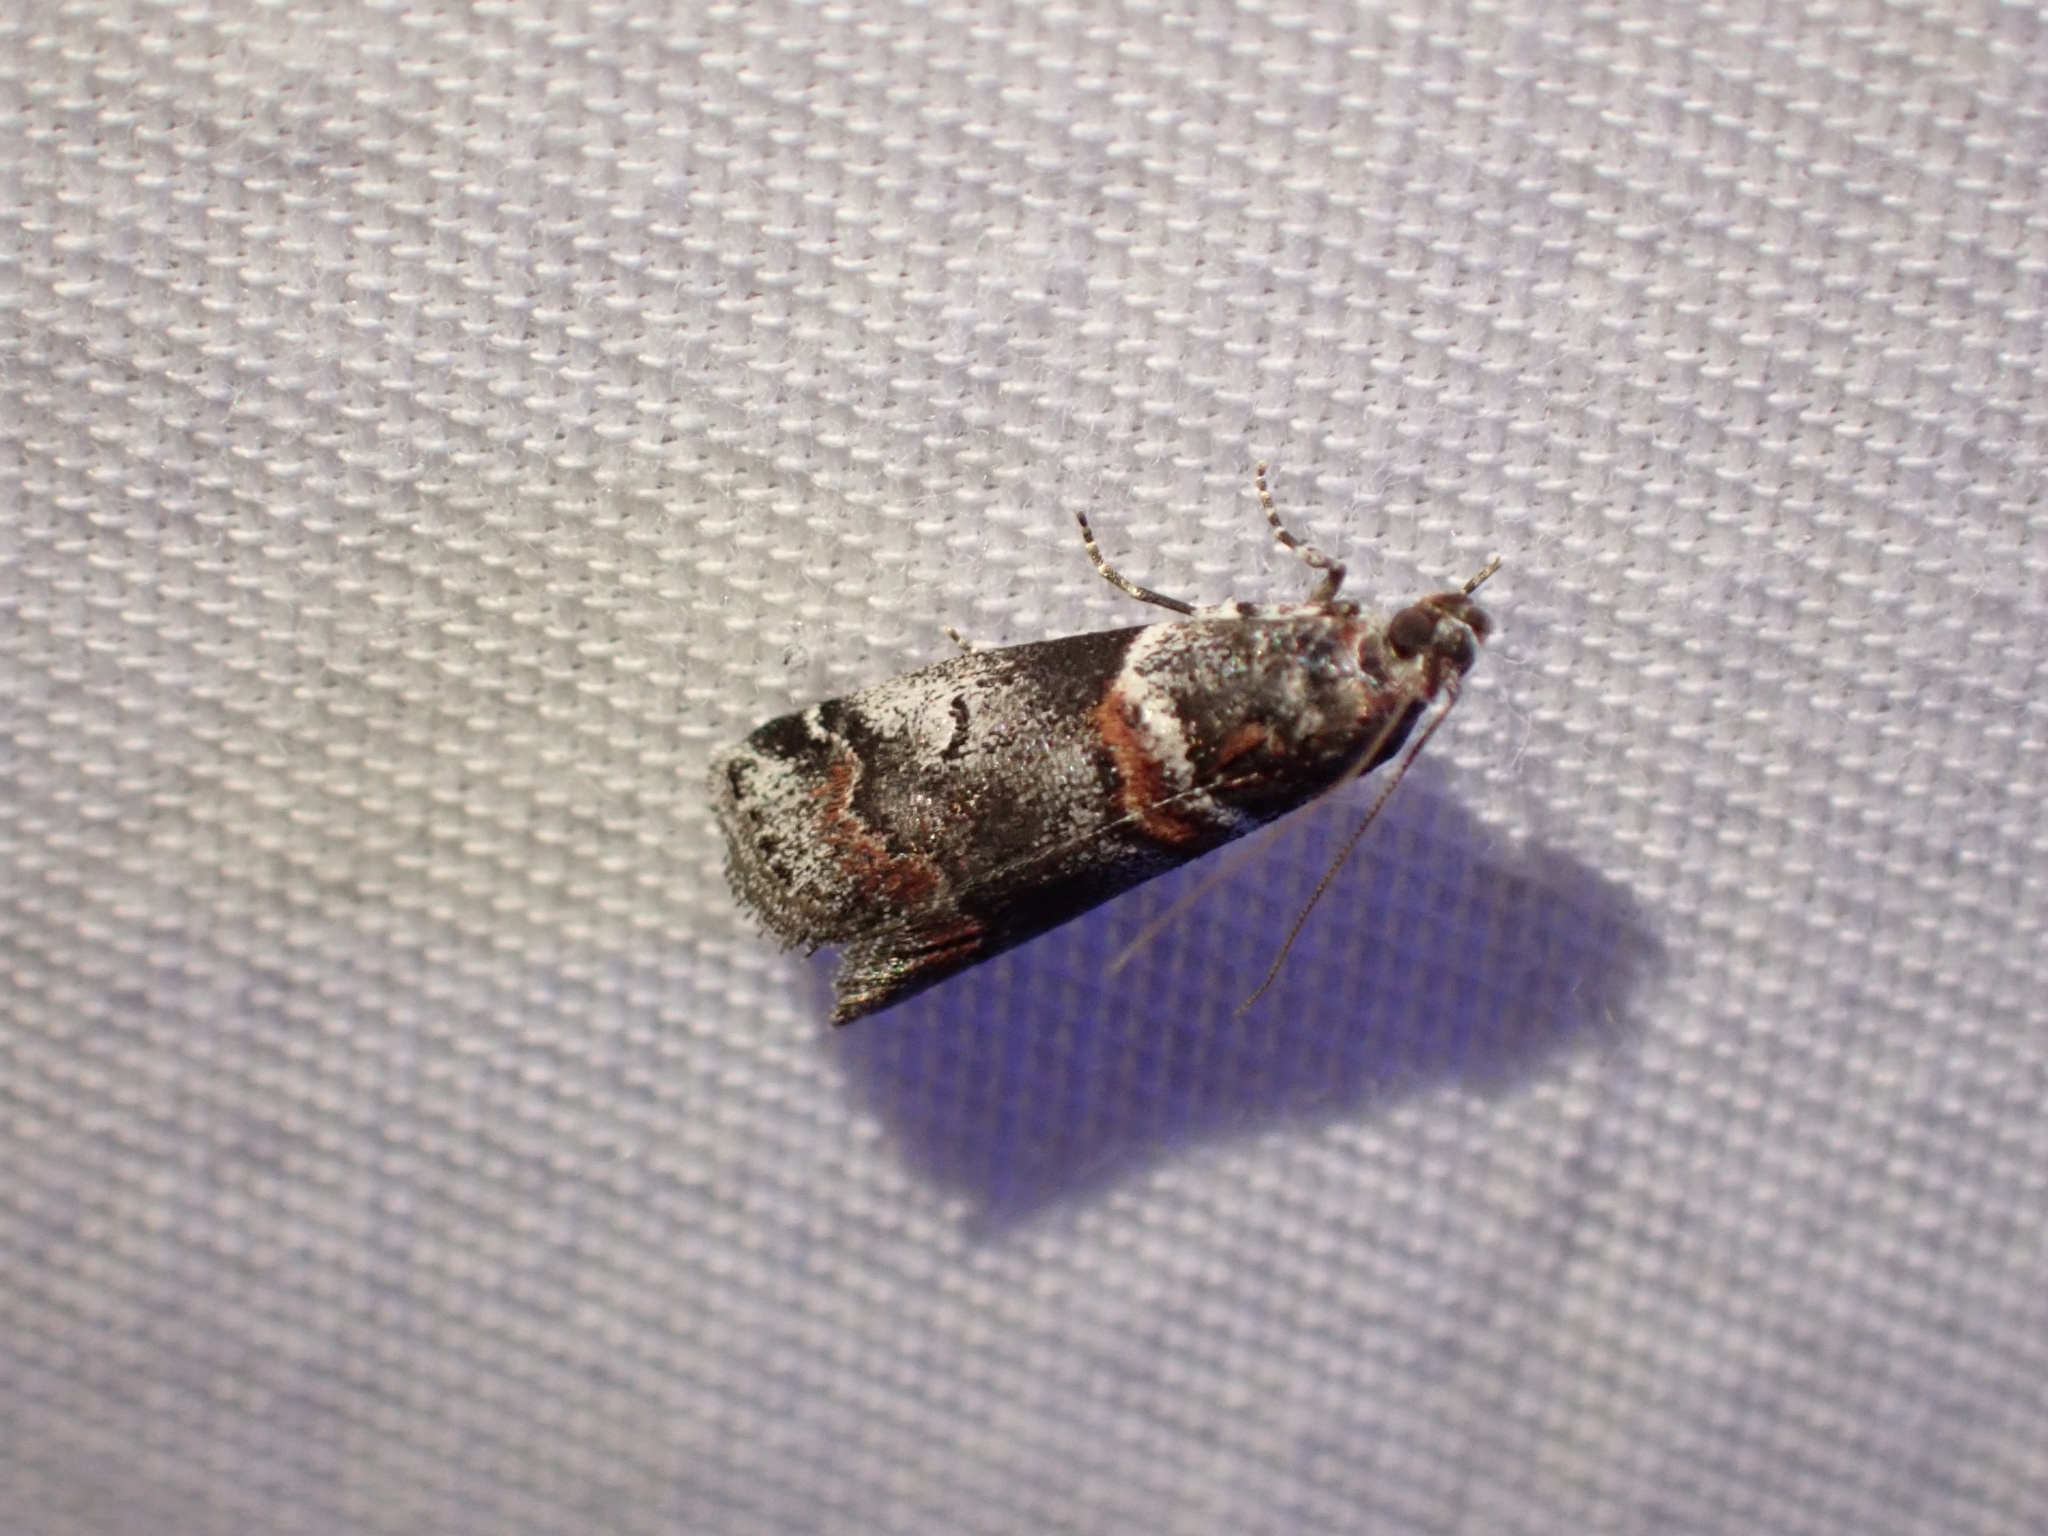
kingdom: Animalia
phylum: Arthropoda
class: Insecta
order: Lepidoptera
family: Pyralidae
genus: Acrobasis
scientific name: Acrobasis tricolorella
